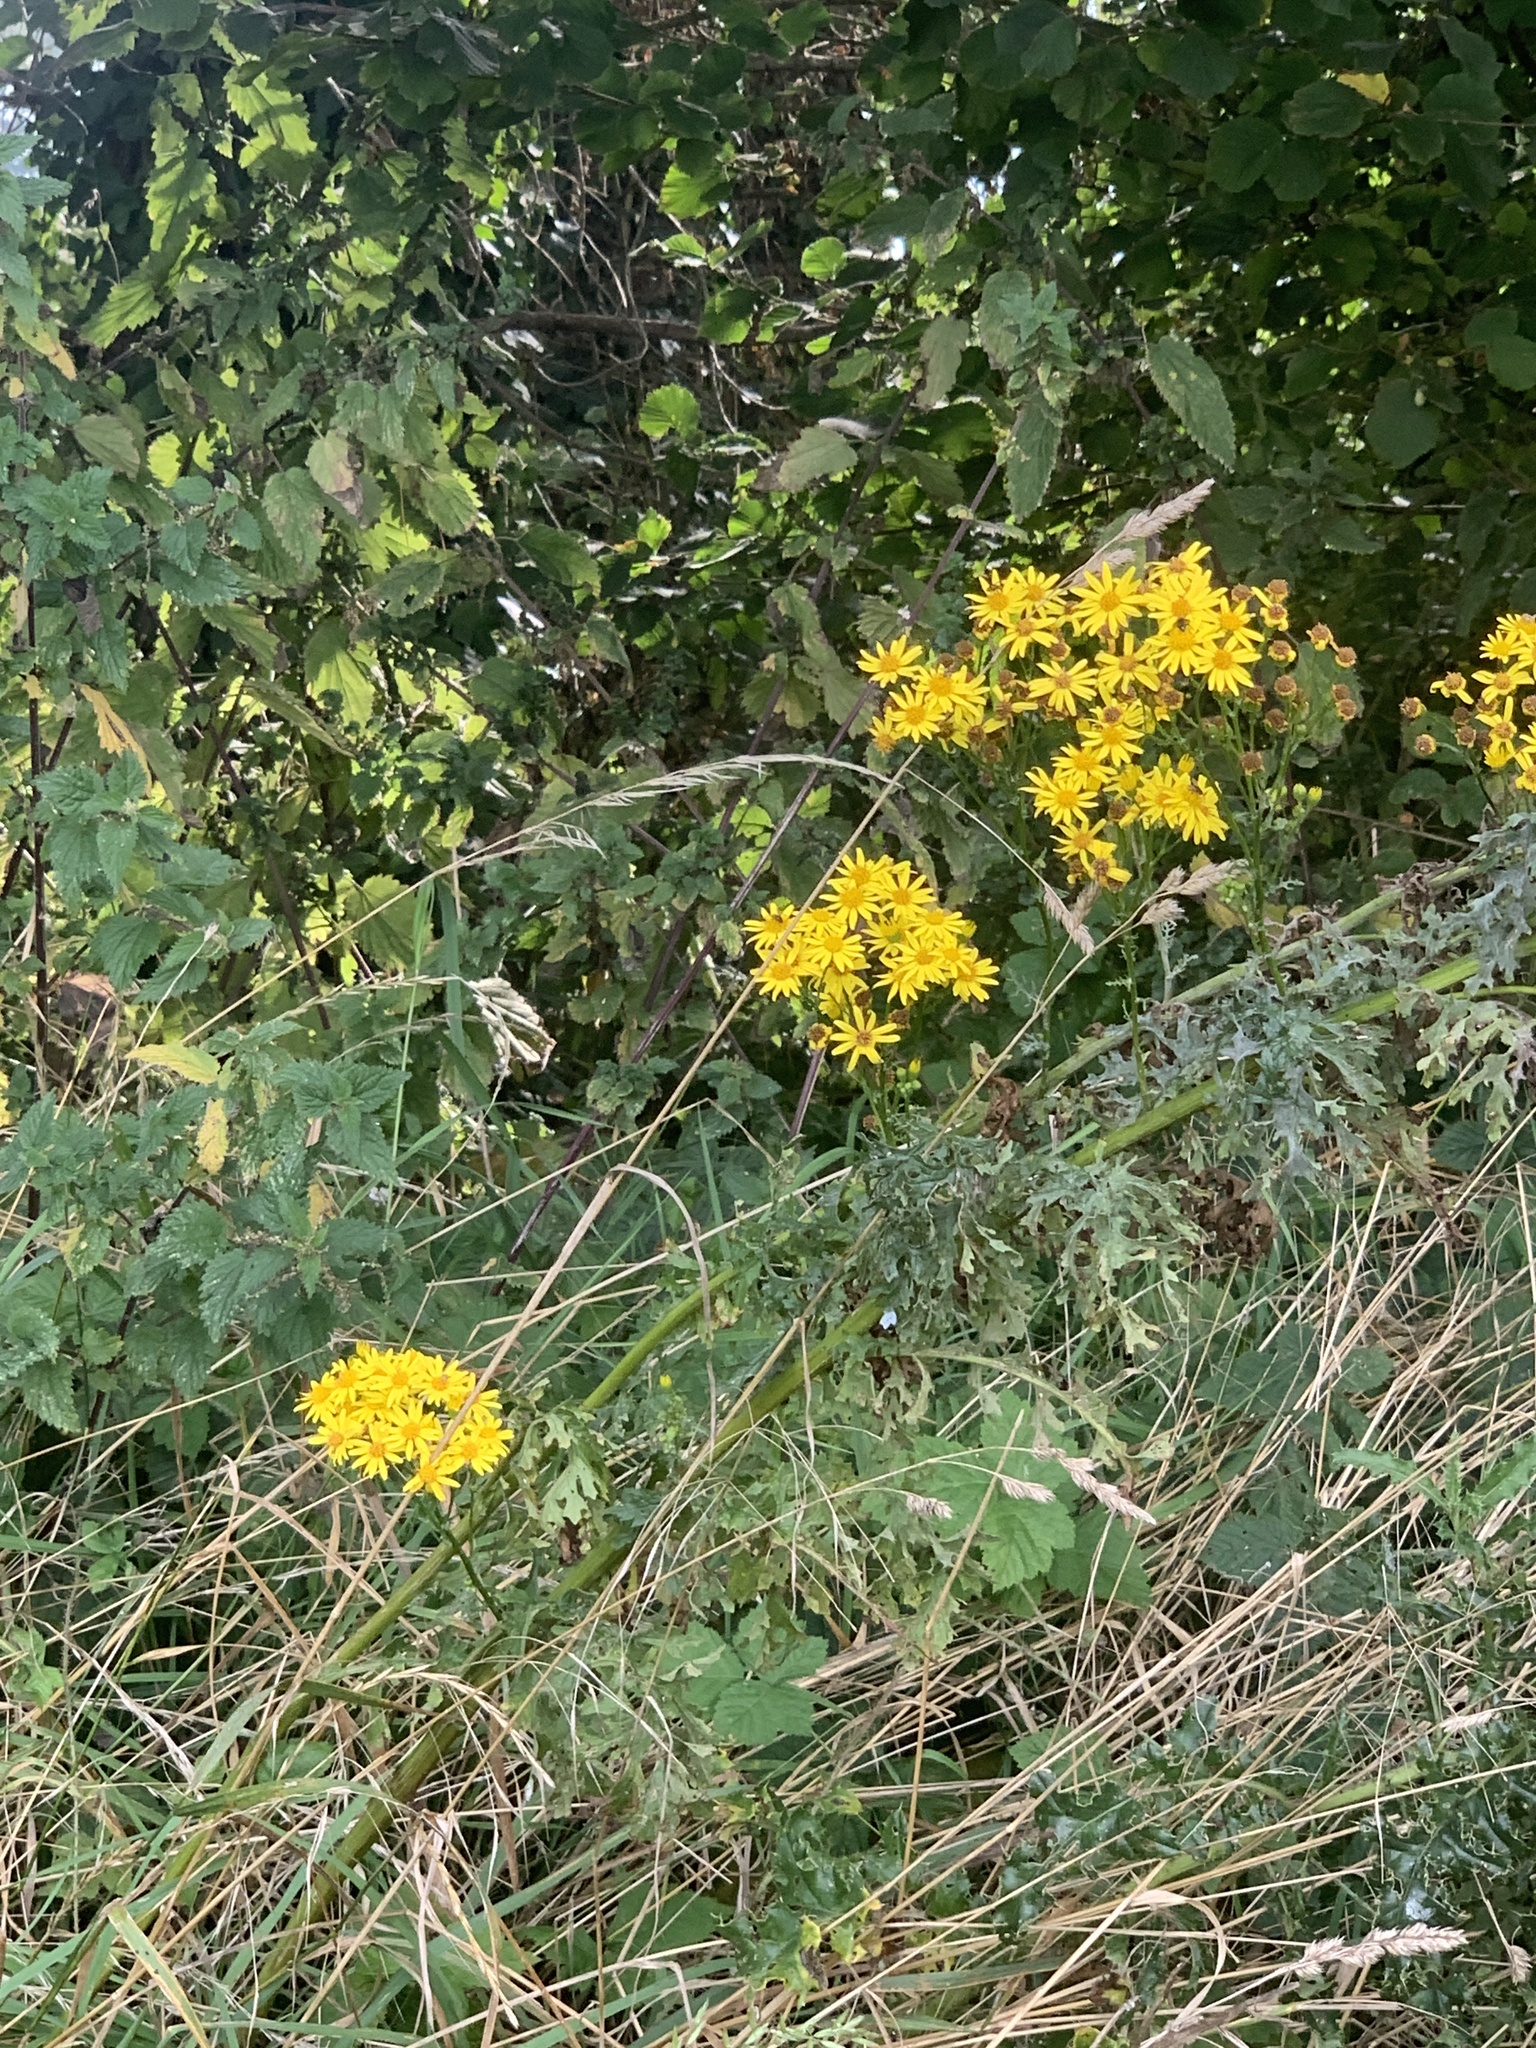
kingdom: Plantae
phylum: Tracheophyta
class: Magnoliopsida
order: Asterales
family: Asteraceae
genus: Jacobaea
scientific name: Jacobaea vulgaris
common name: Stinking willie
